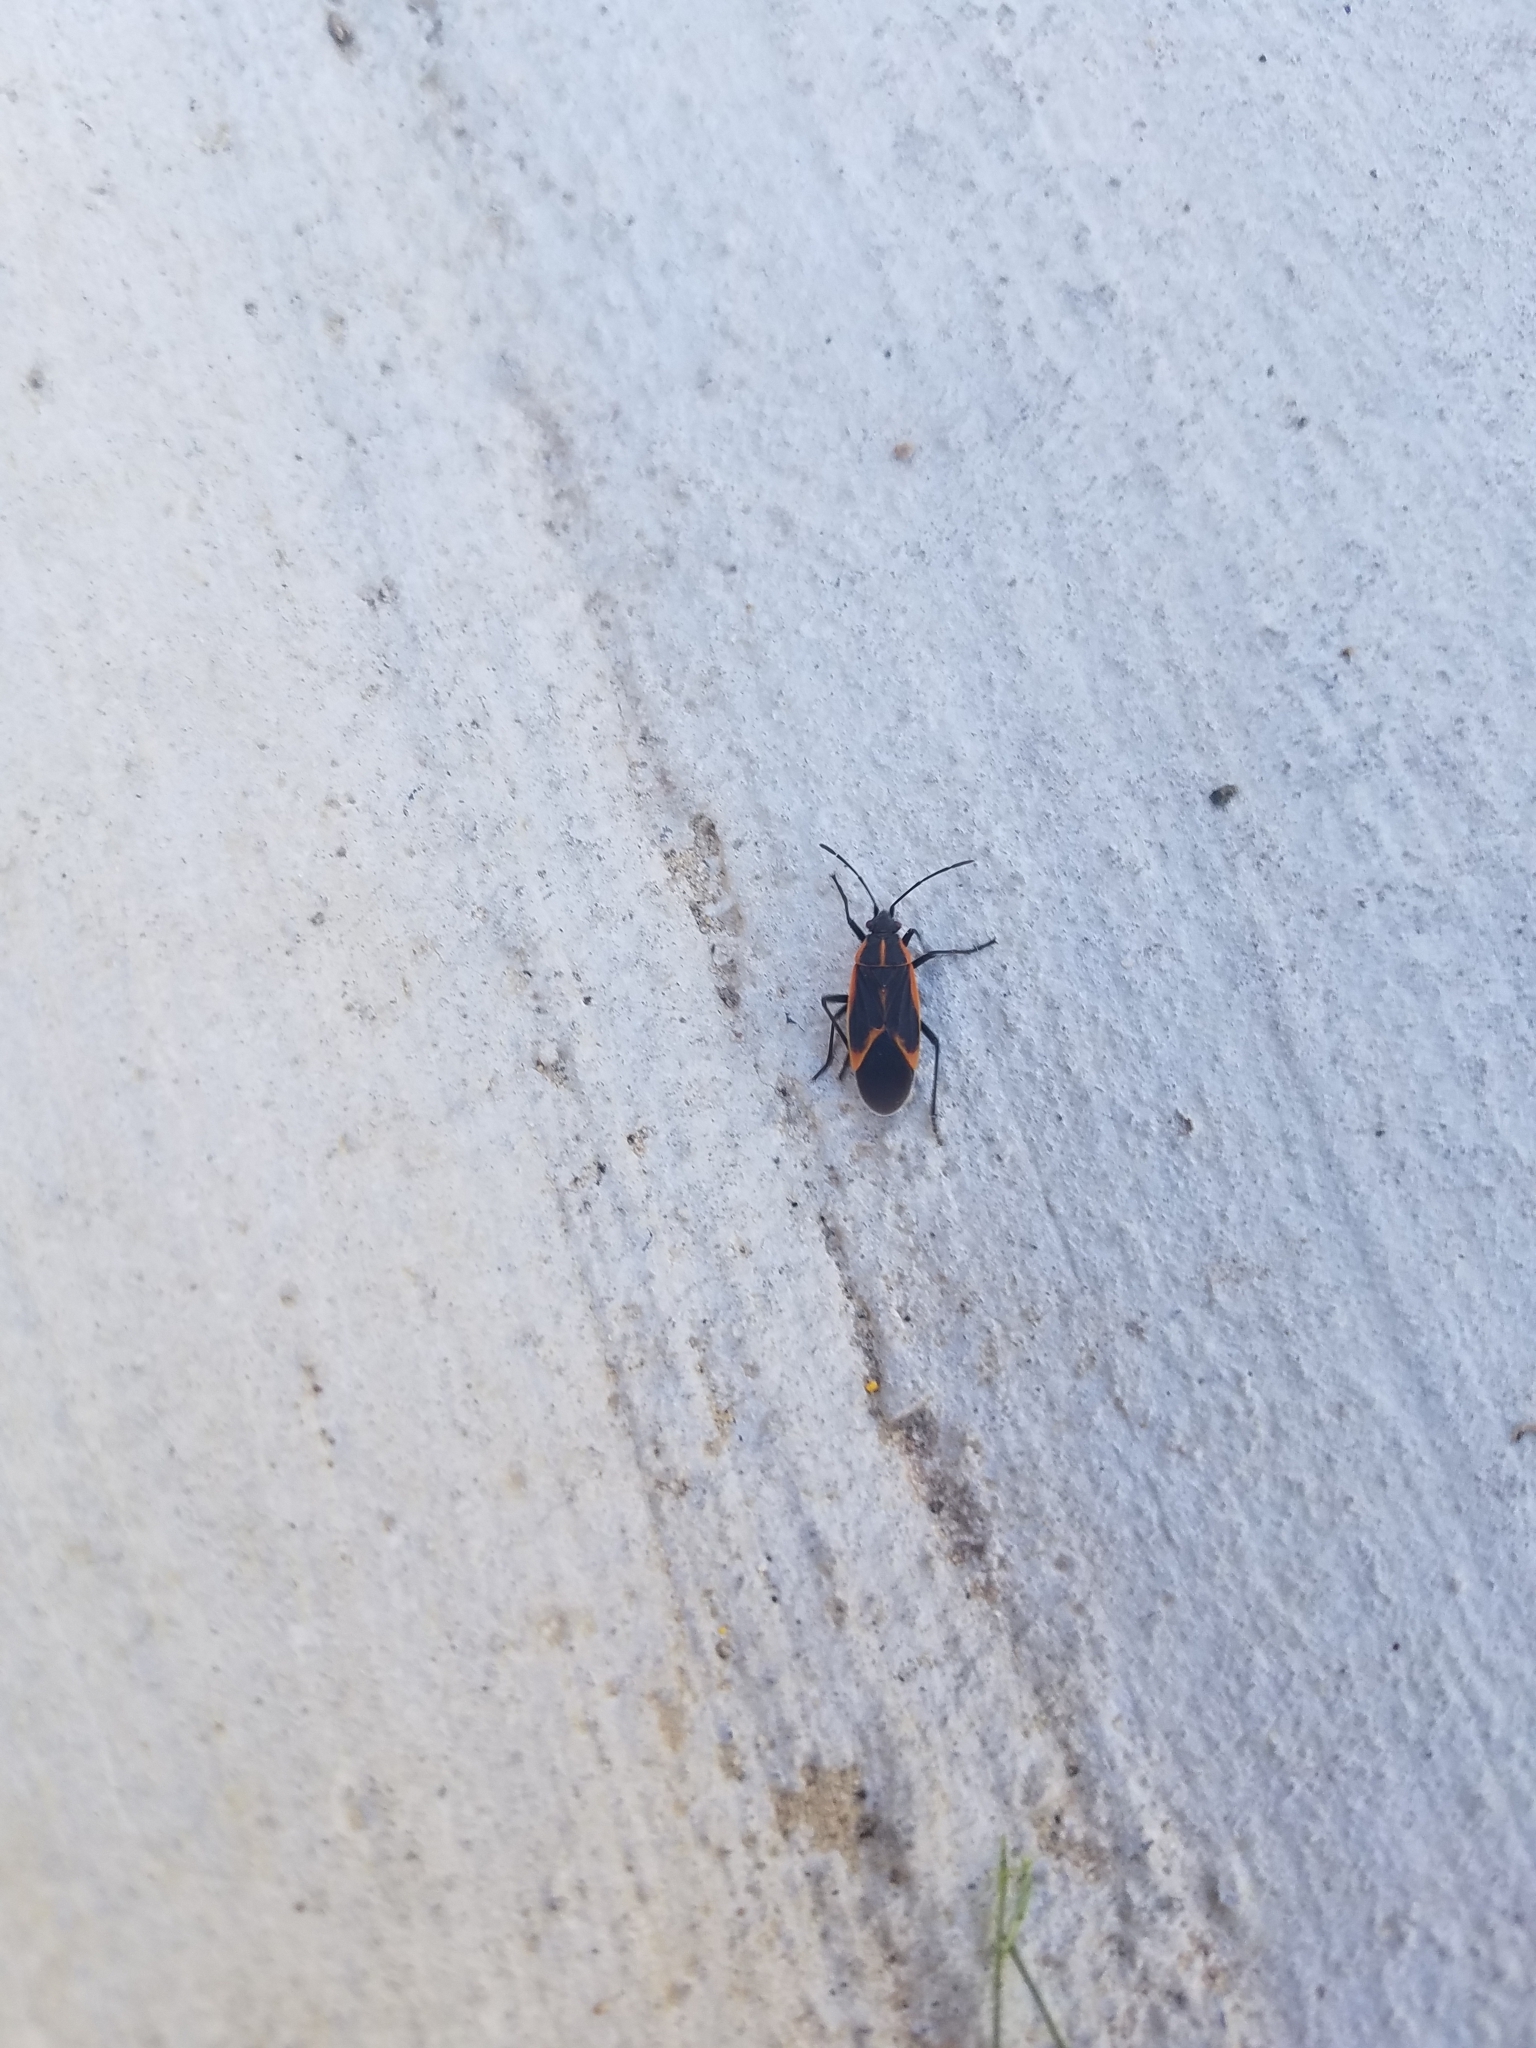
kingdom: Animalia
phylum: Arthropoda
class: Insecta
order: Hemiptera
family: Rhopalidae
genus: Boisea
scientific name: Boisea trivittata
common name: Boxelder bug
